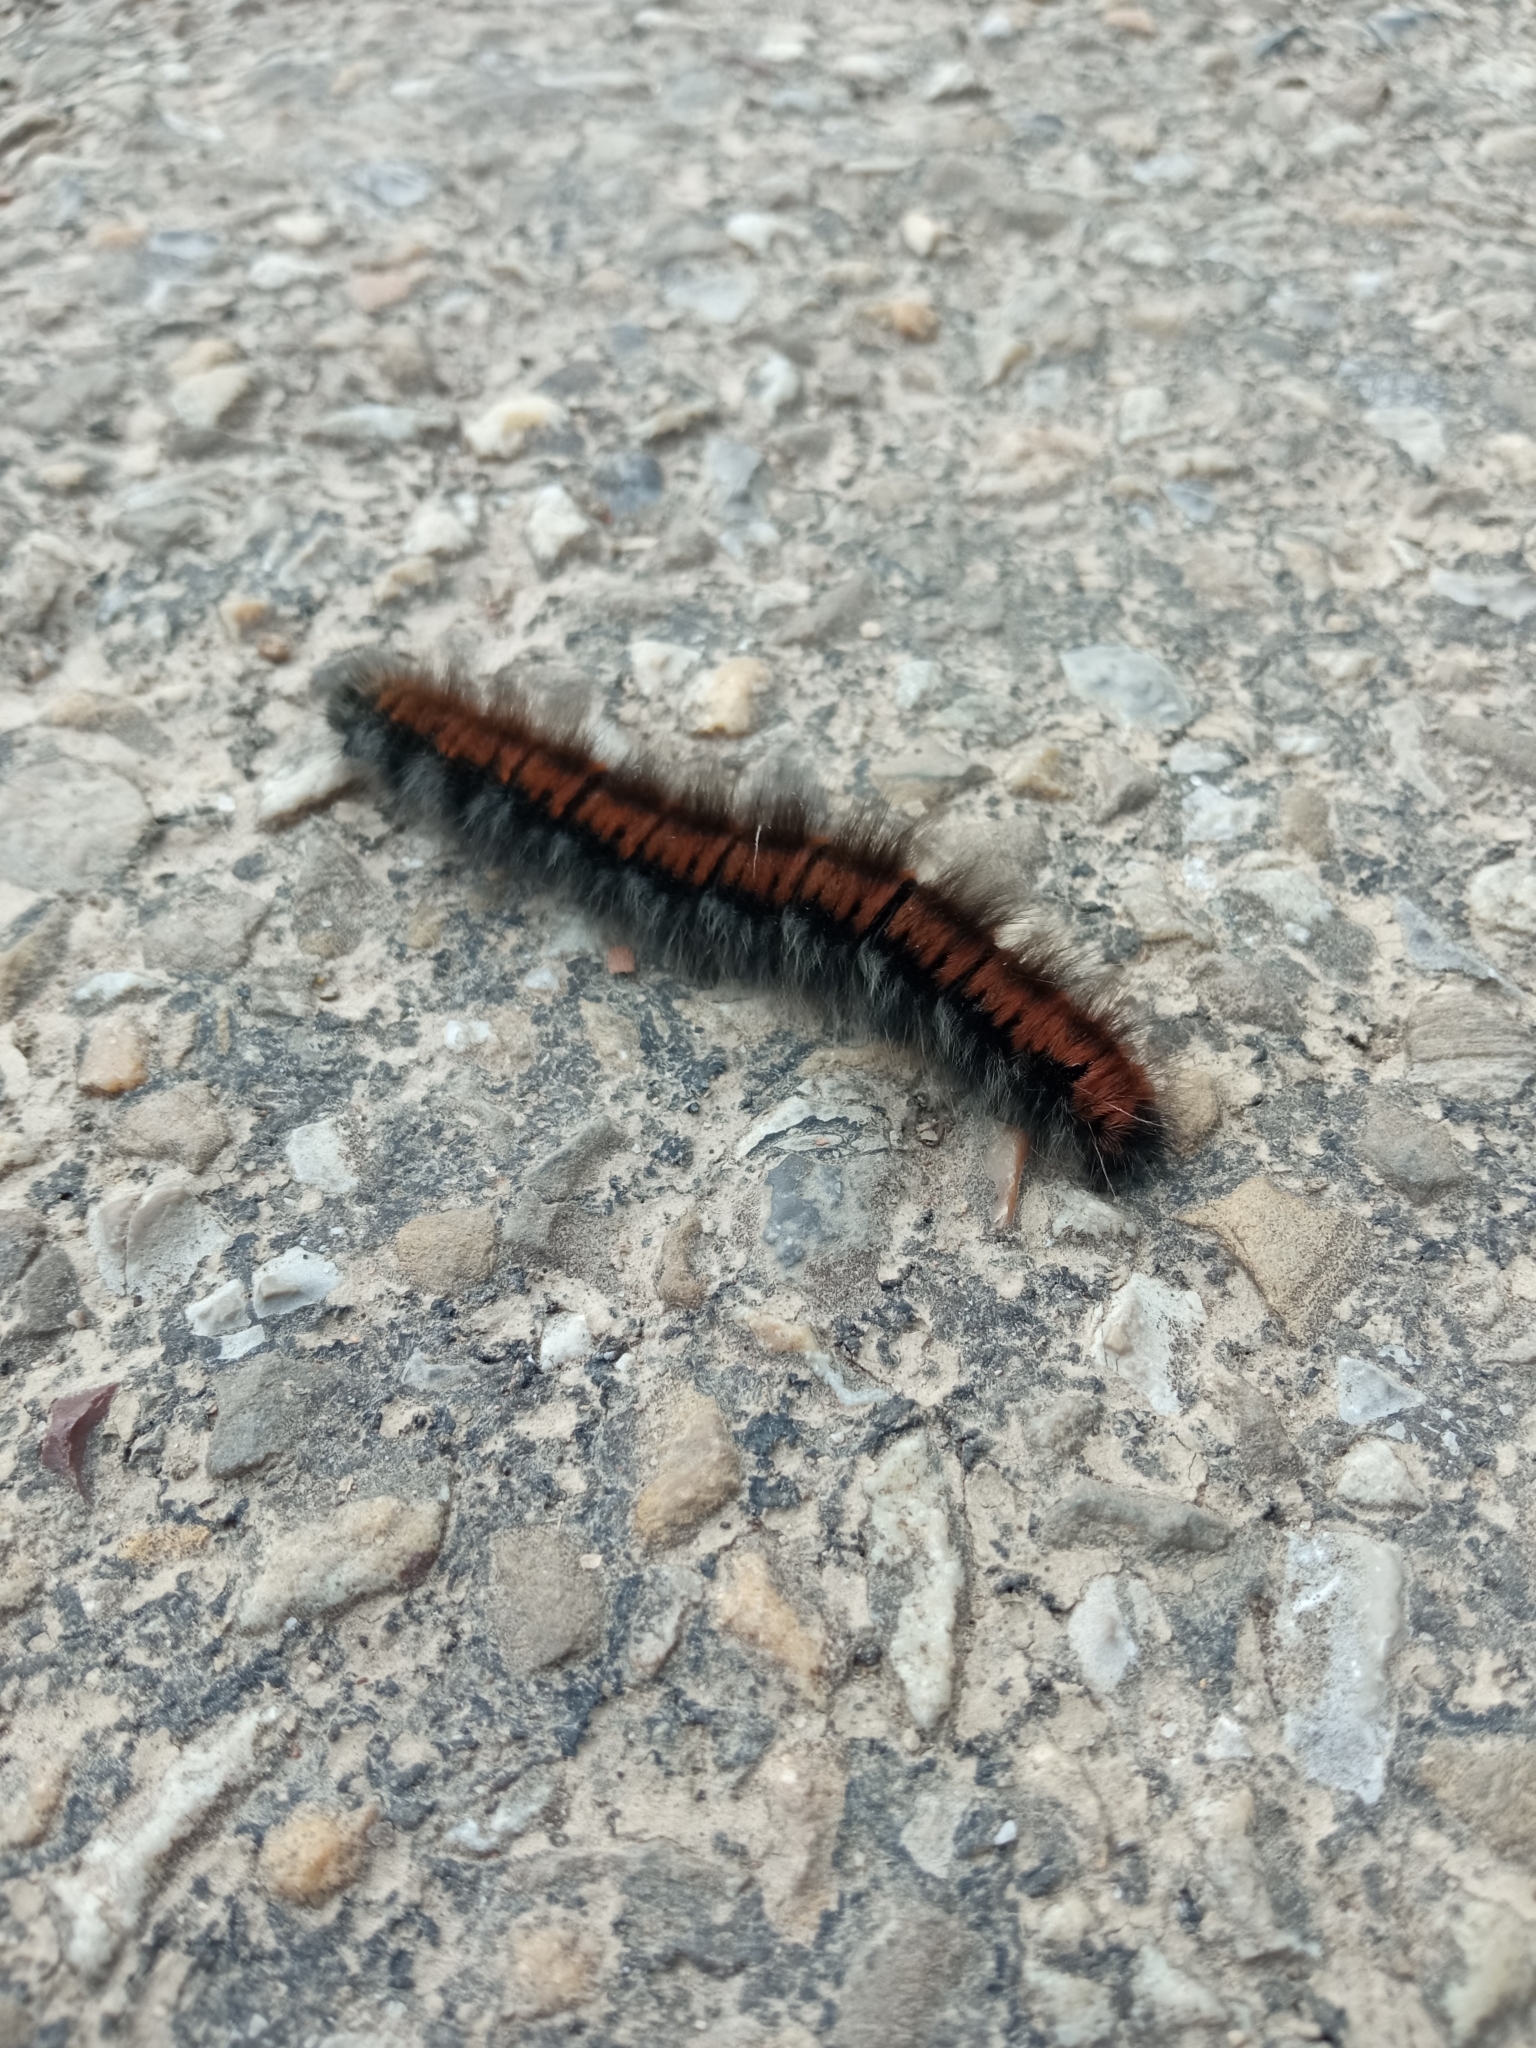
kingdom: Animalia
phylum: Arthropoda
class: Insecta
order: Lepidoptera
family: Lasiocampidae
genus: Macrothylacia
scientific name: Macrothylacia rubi
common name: Fox moth
